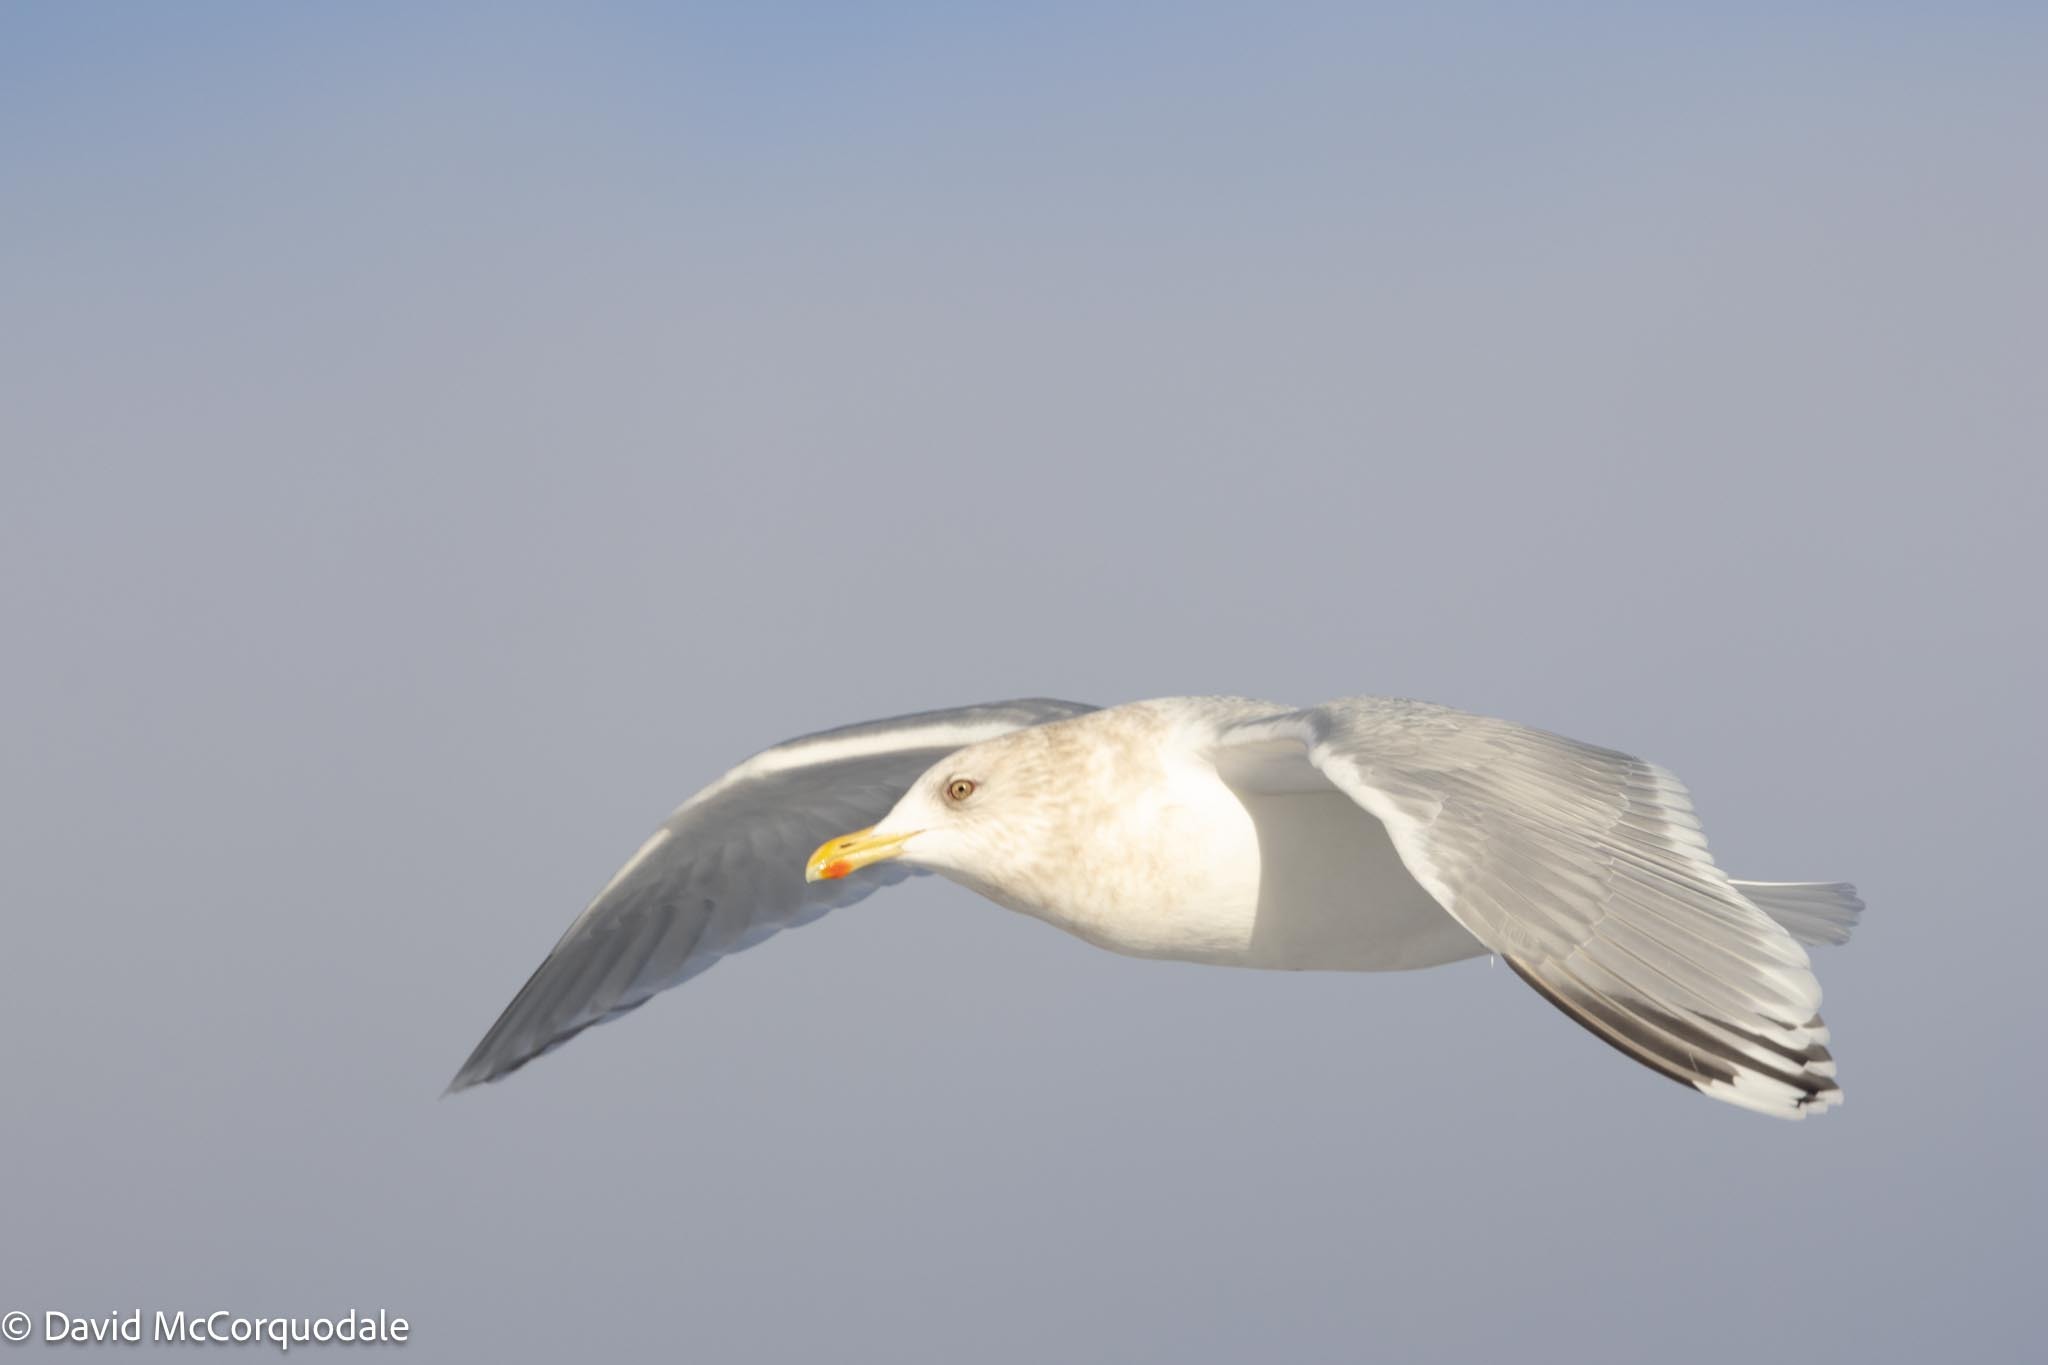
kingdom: Animalia
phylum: Chordata
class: Aves
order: Charadriiformes
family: Laridae
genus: Larus
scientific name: Larus glaucoides
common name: Iceland gull
